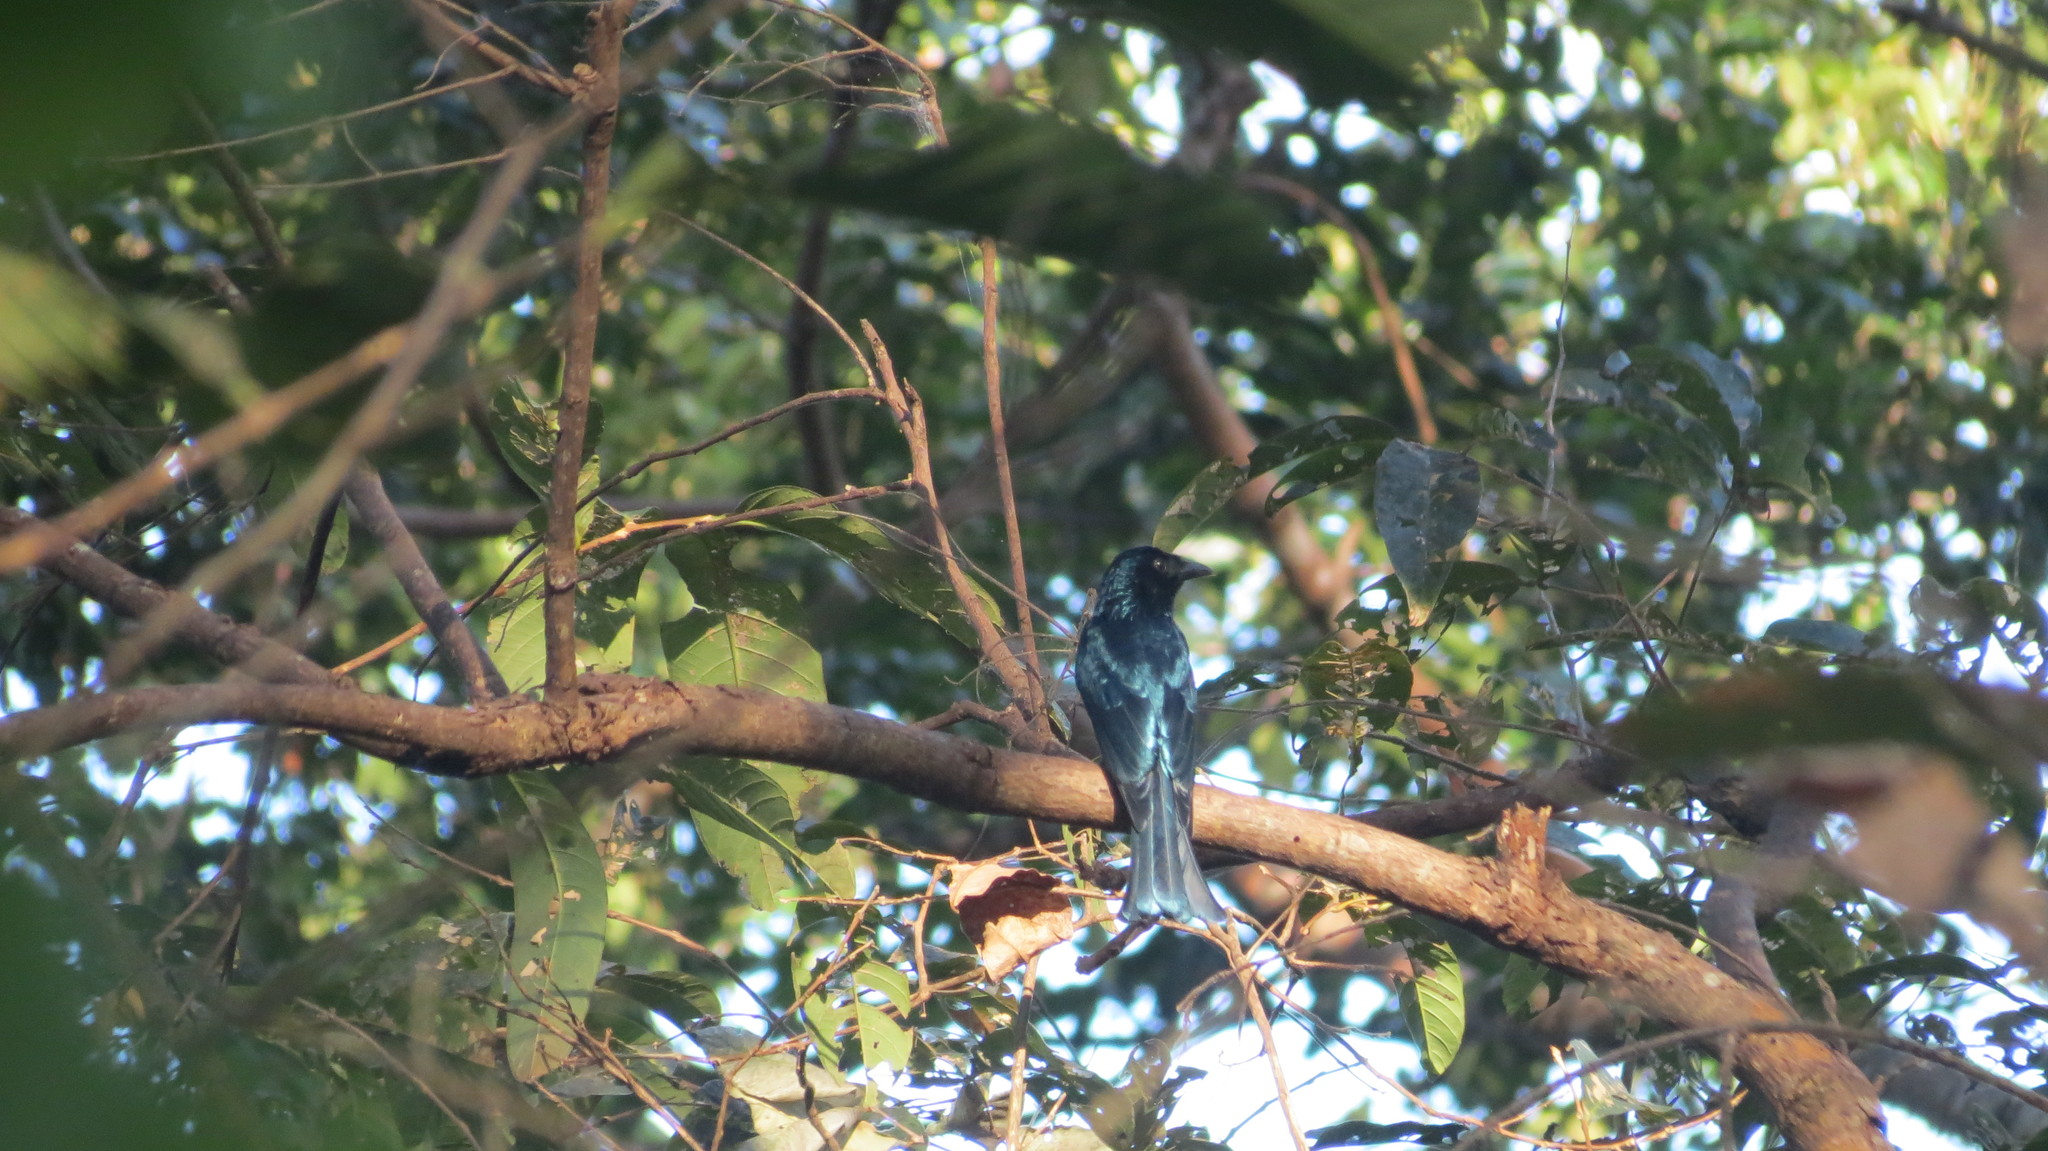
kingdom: Animalia
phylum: Chordata
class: Aves
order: Passeriformes
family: Dicruridae
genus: Dicrurus
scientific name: Dicrurus balicassius
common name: Balicassiao
